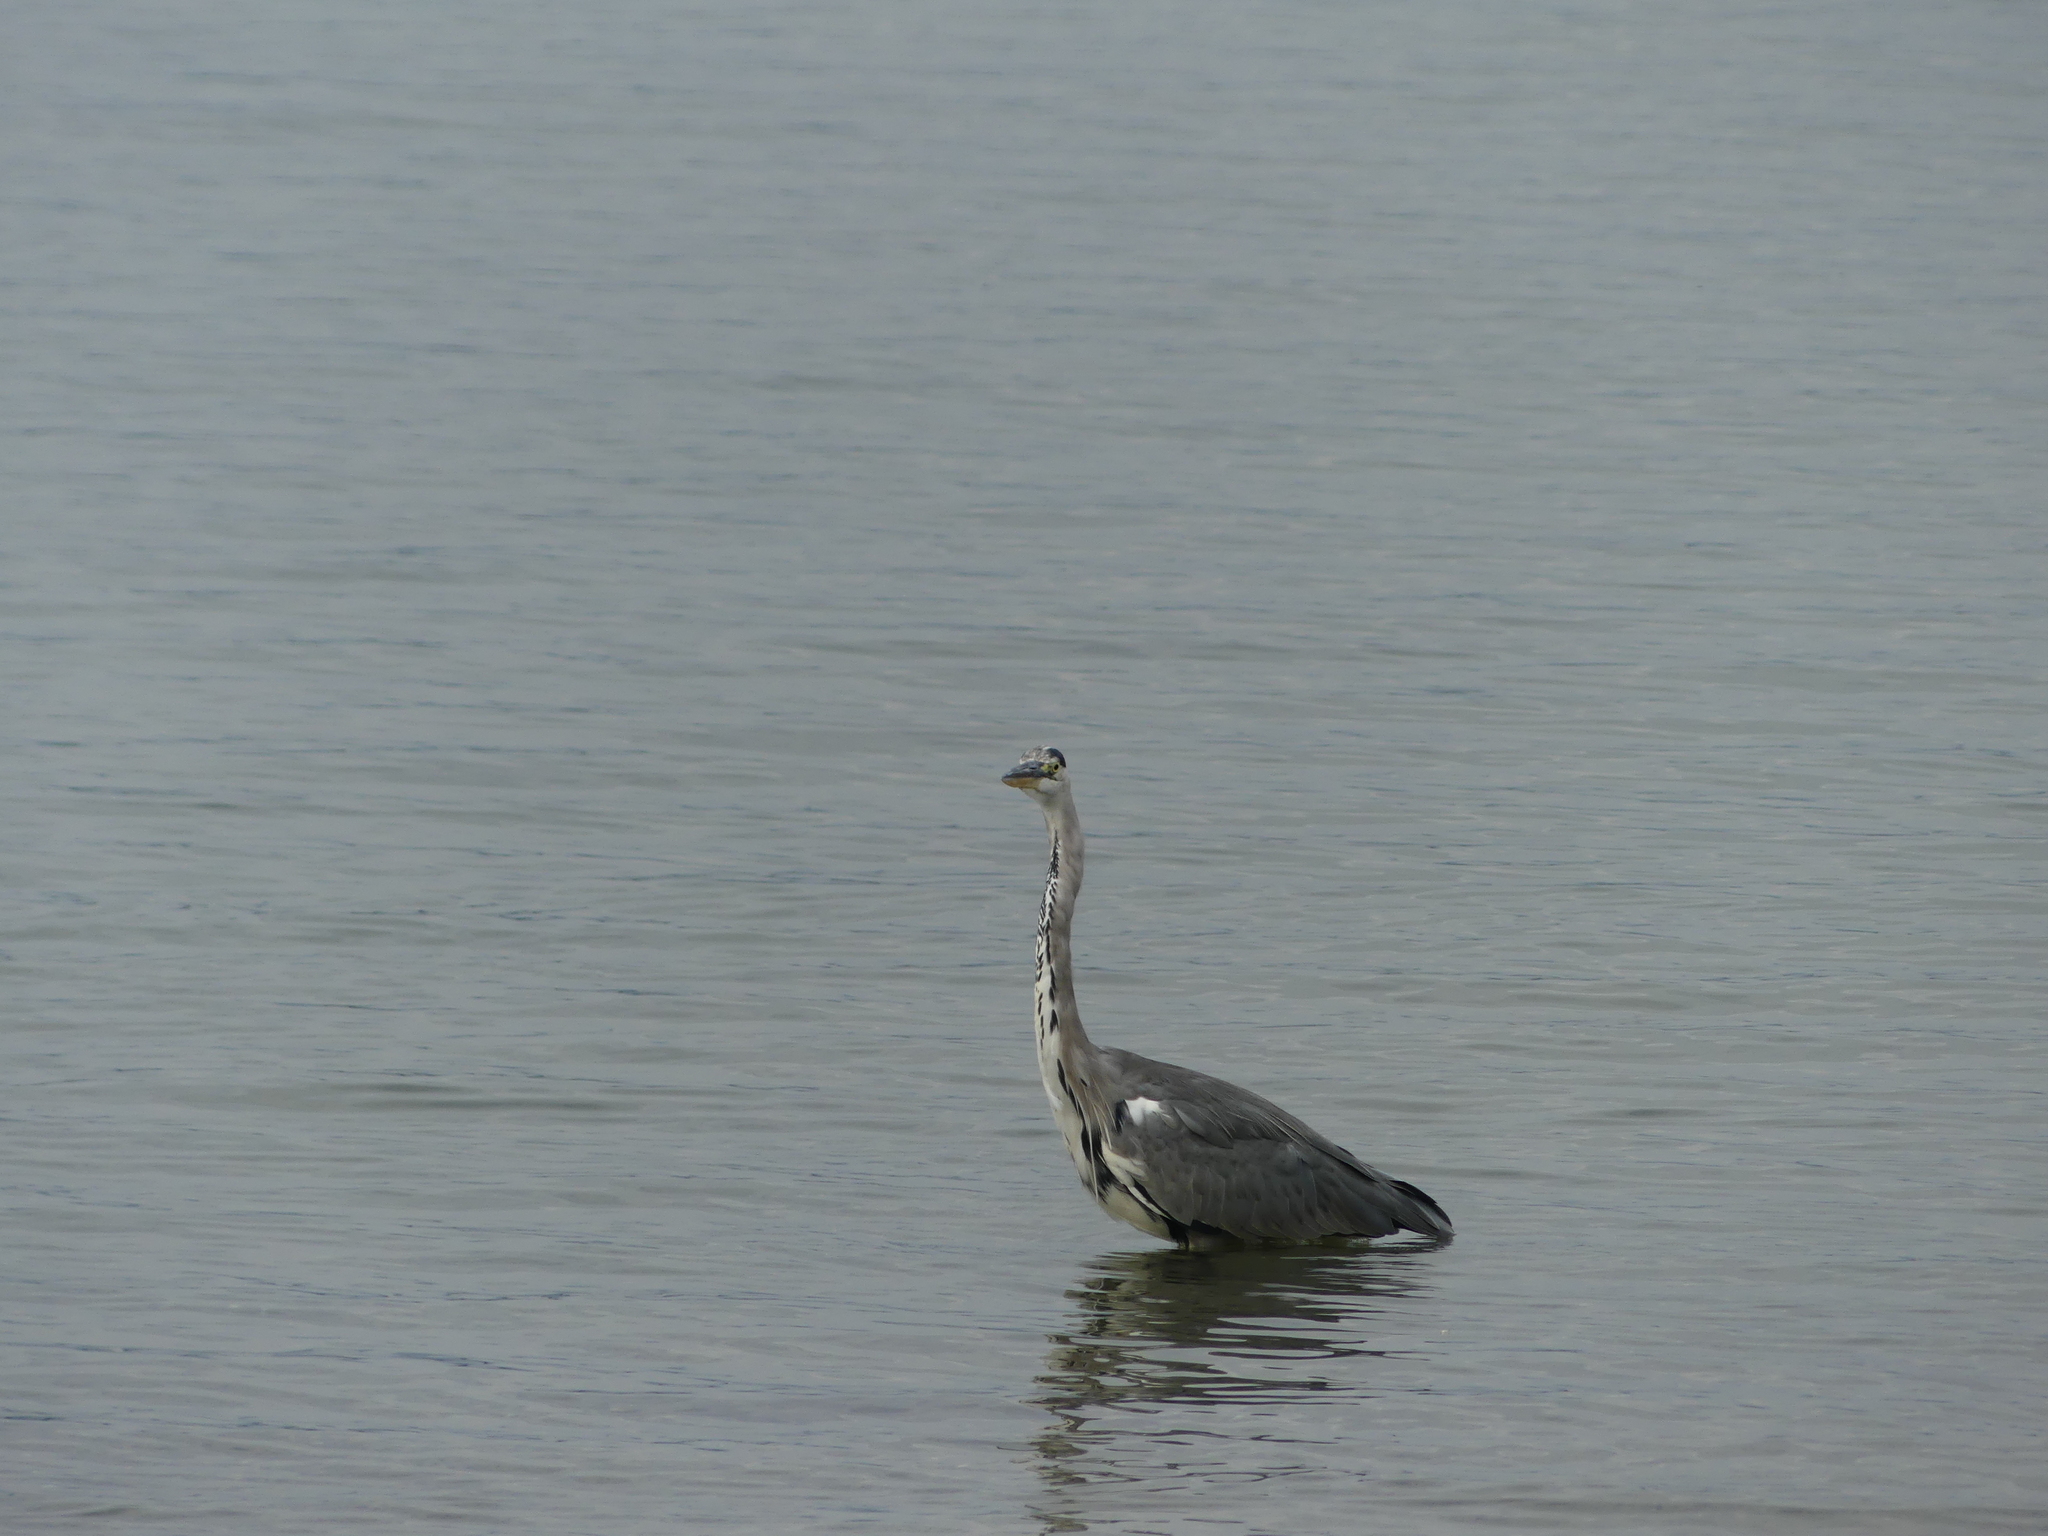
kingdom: Animalia
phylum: Chordata
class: Aves
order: Pelecaniformes
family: Ardeidae
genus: Ardea
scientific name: Ardea cinerea
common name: Grey heron
